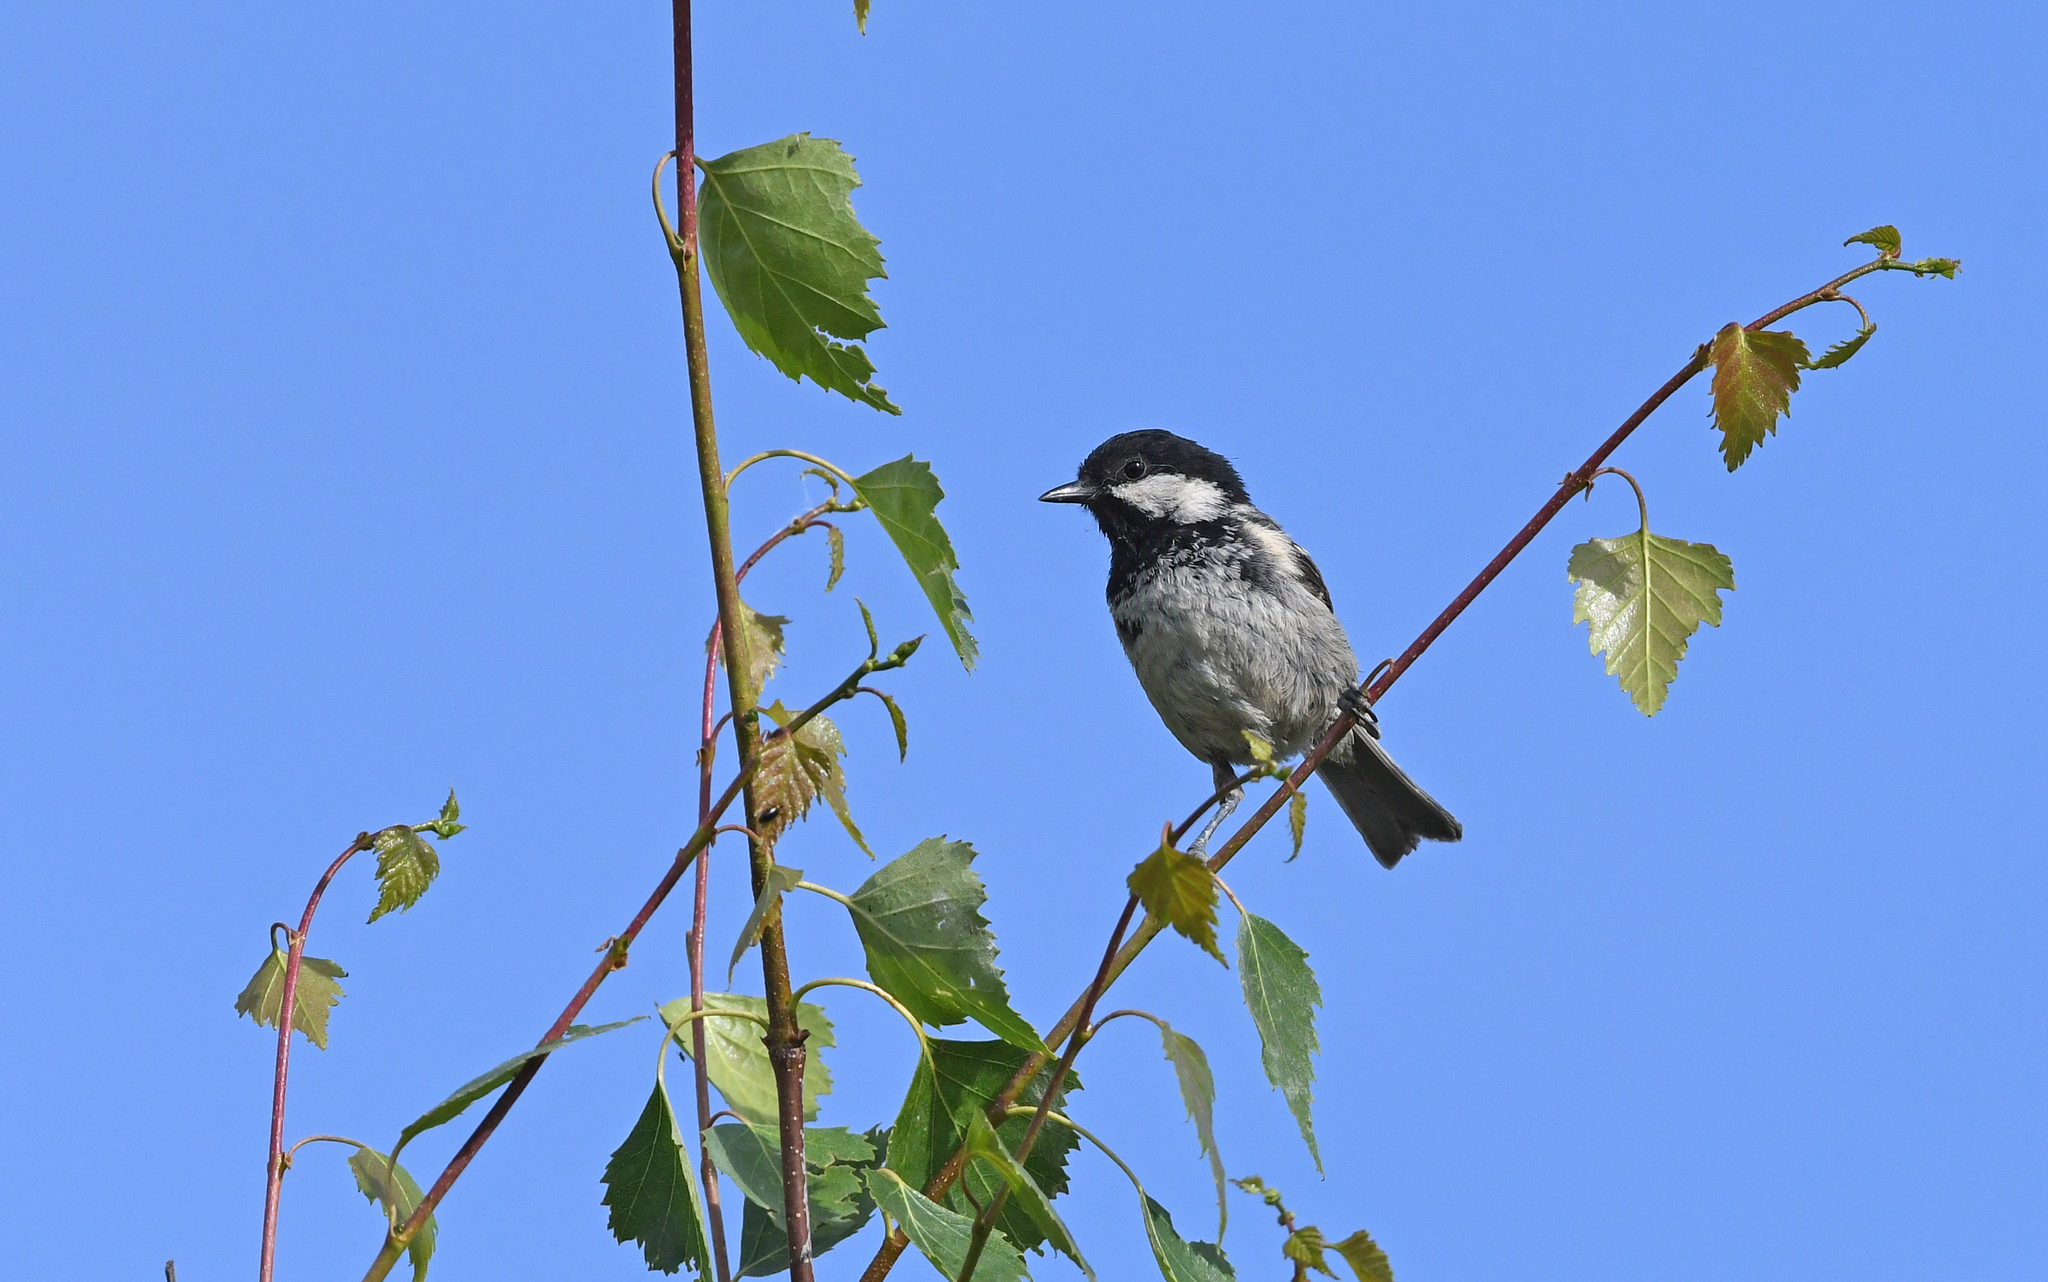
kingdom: Animalia
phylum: Chordata
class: Aves
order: Passeriformes
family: Paridae
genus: Periparus
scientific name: Periparus ater
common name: Coal tit
